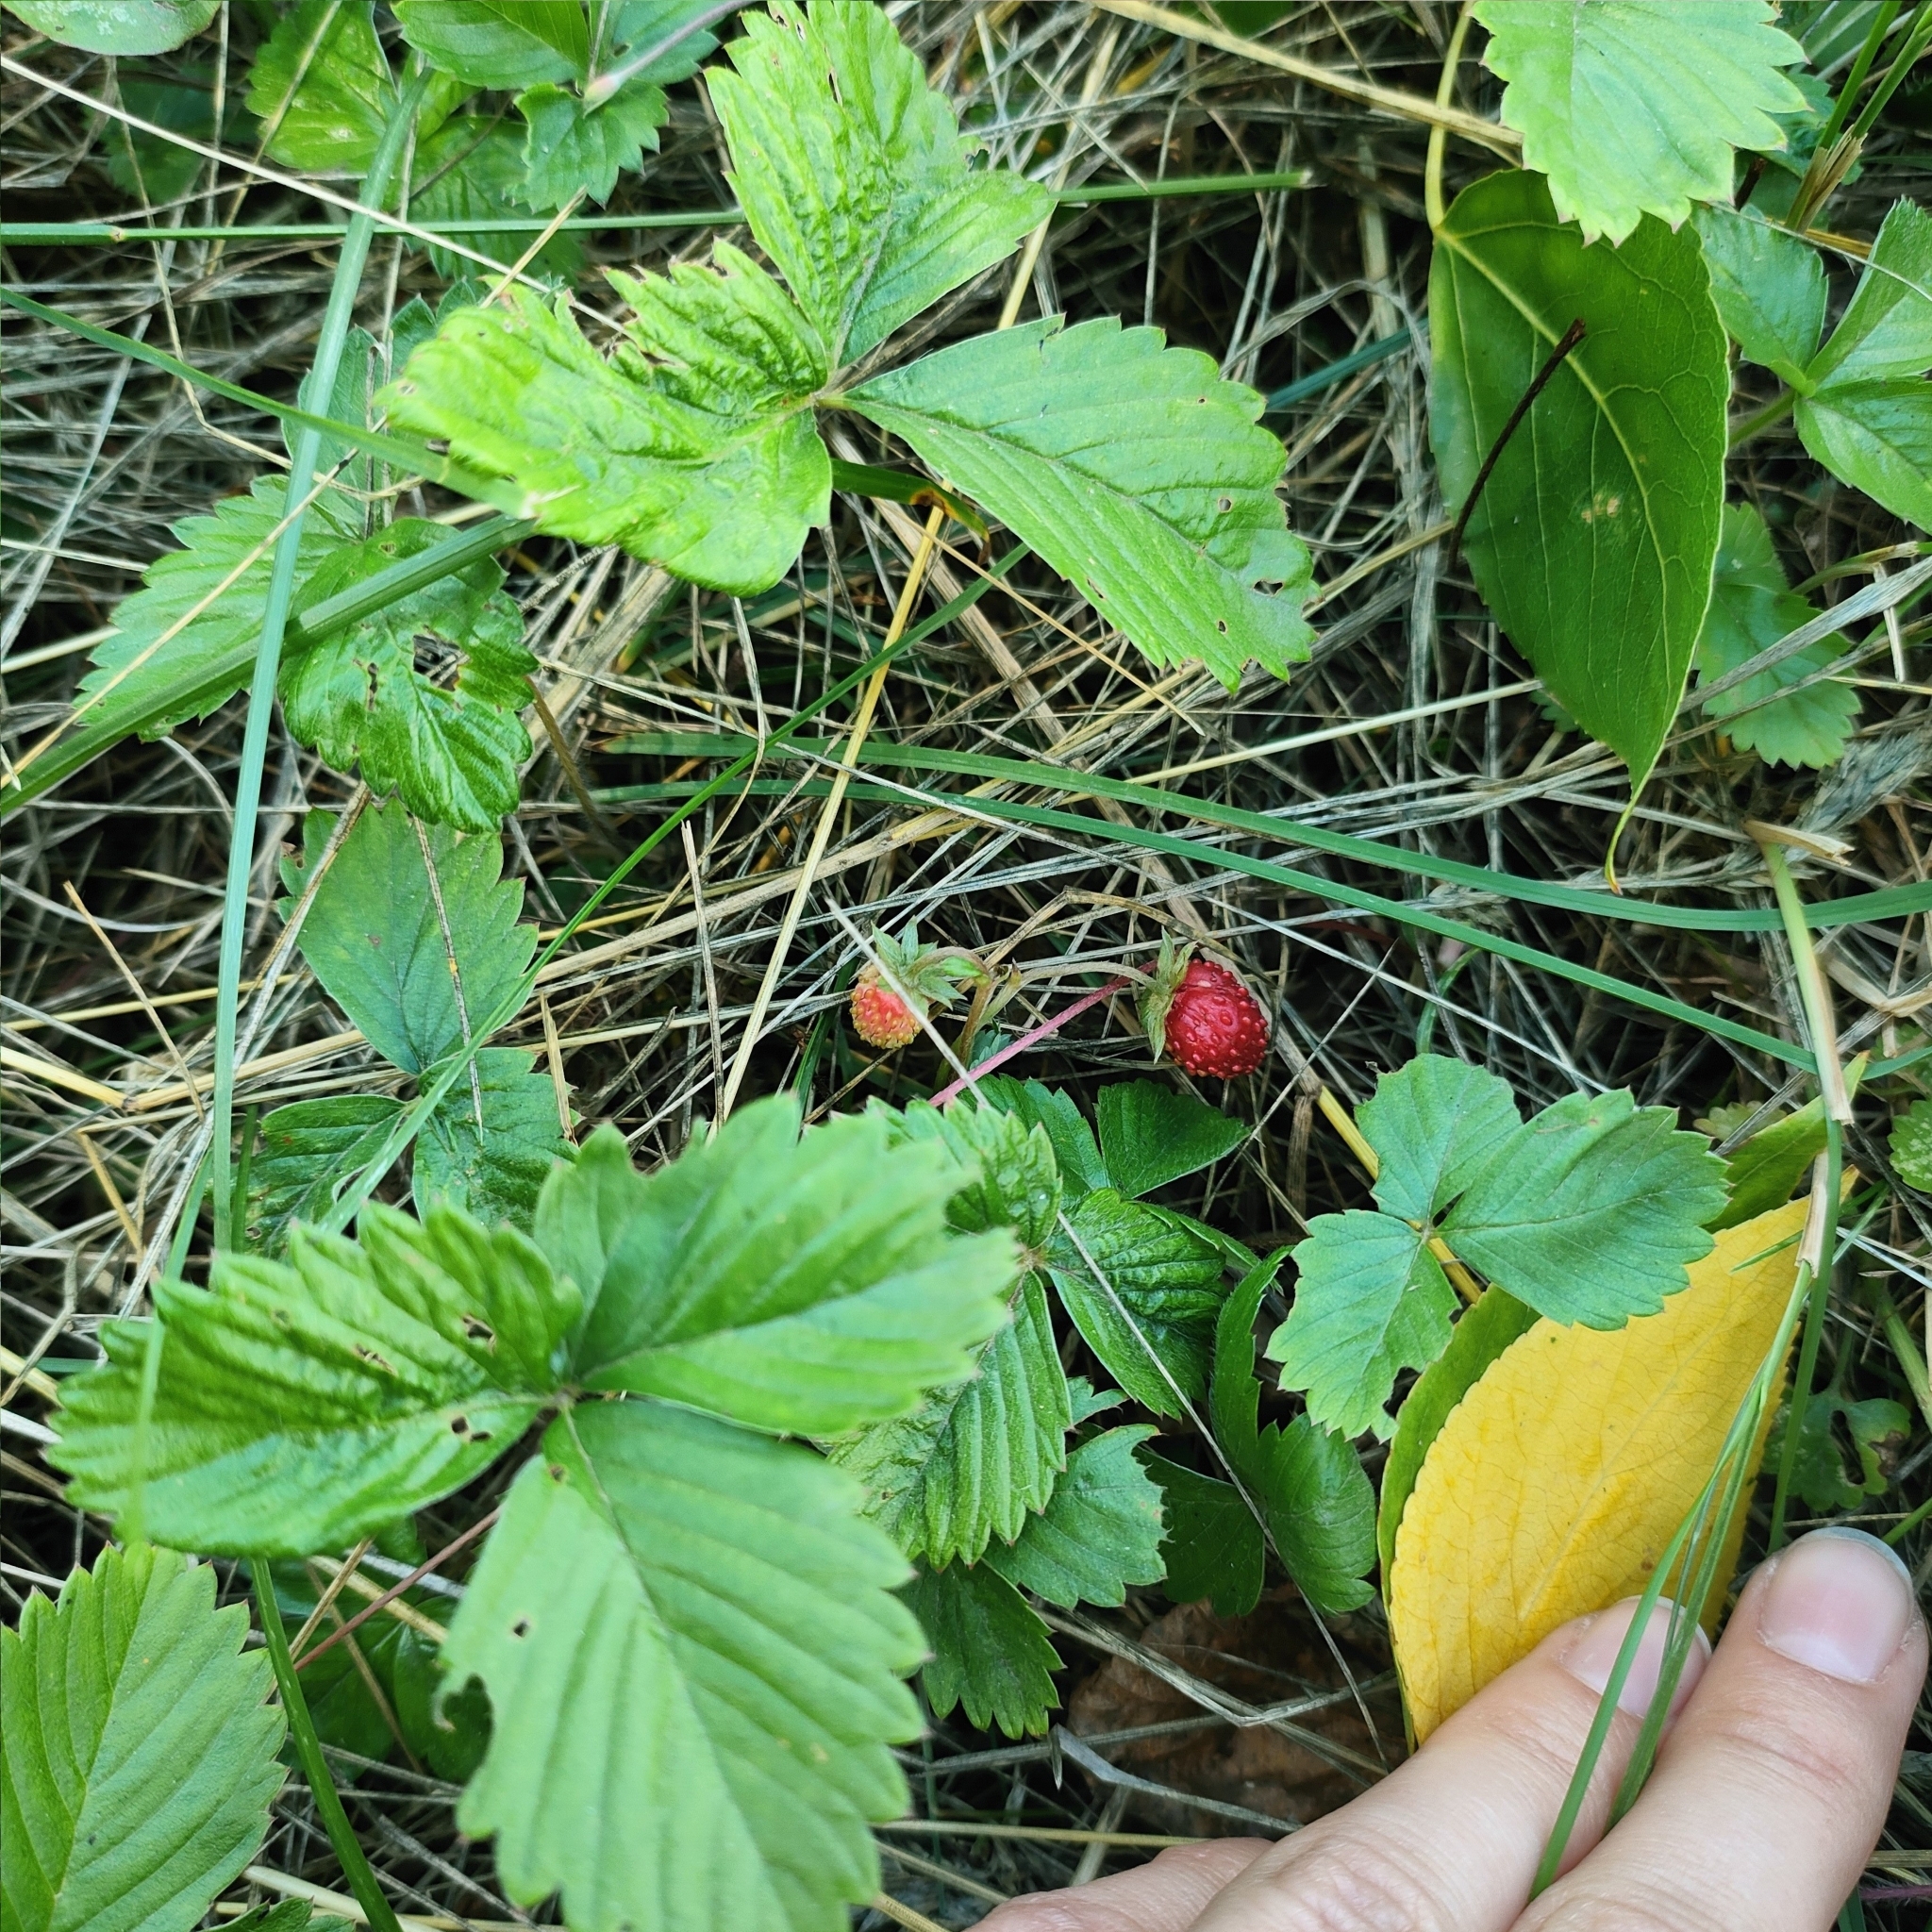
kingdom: Plantae
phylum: Tracheophyta
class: Magnoliopsida
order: Rosales
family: Rosaceae
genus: Fragaria
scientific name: Fragaria vesca
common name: Wild strawberry
